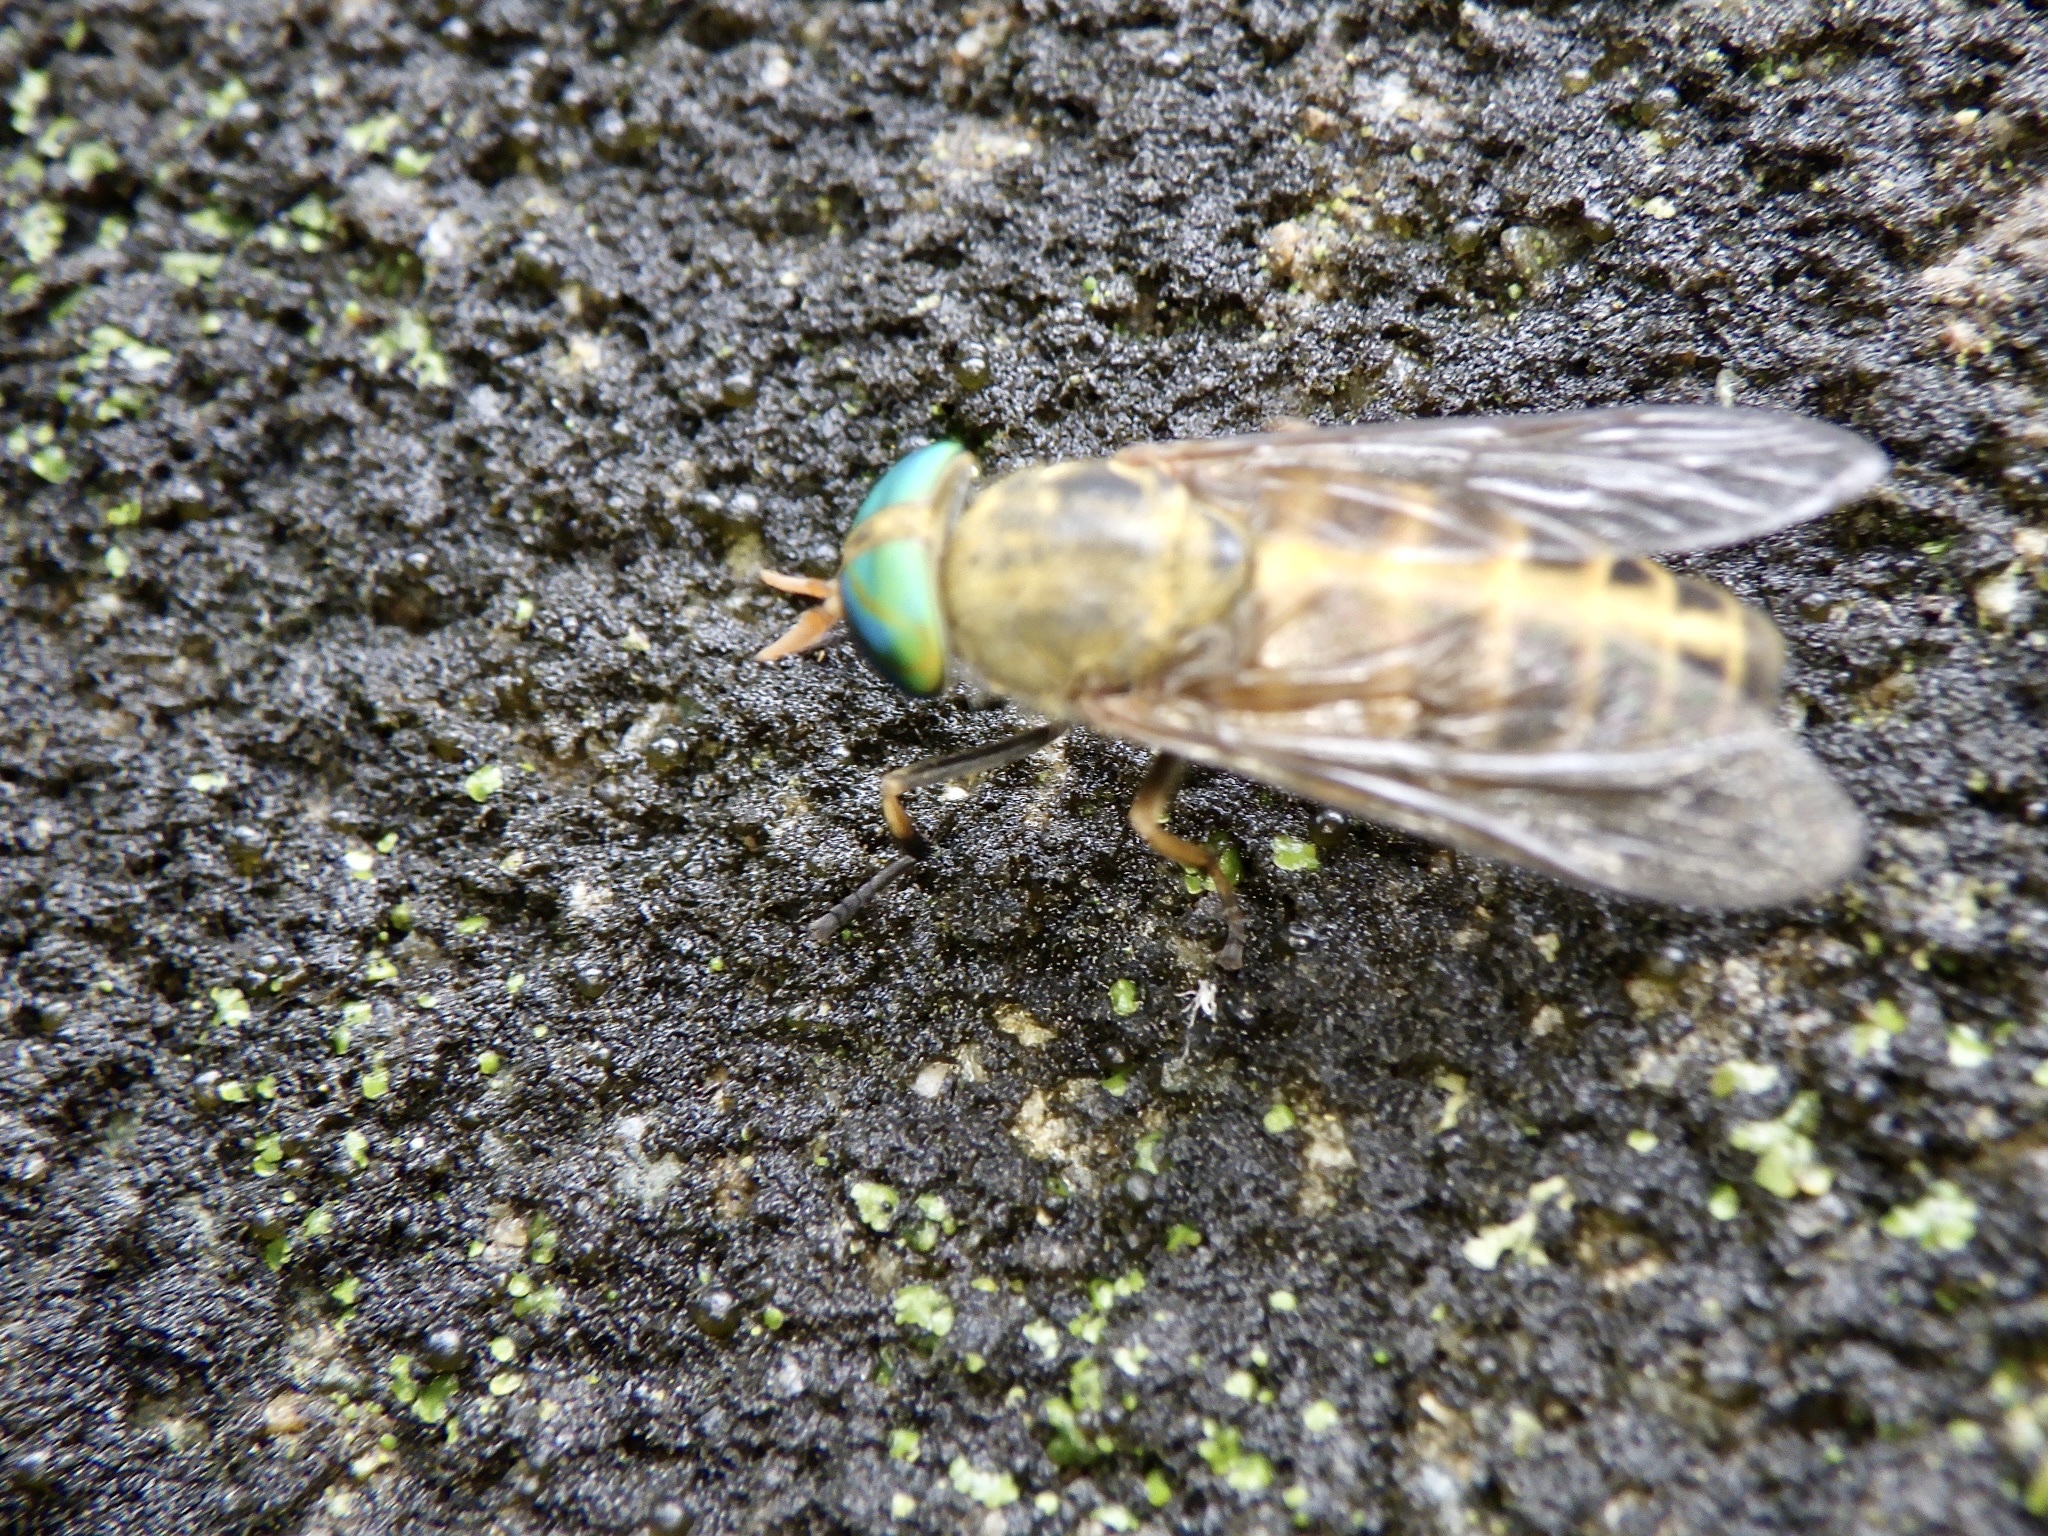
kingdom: Animalia
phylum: Arthropoda
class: Insecta
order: Diptera
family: Tabanidae
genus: Tabanus
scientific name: Tabanus sapporoensis
